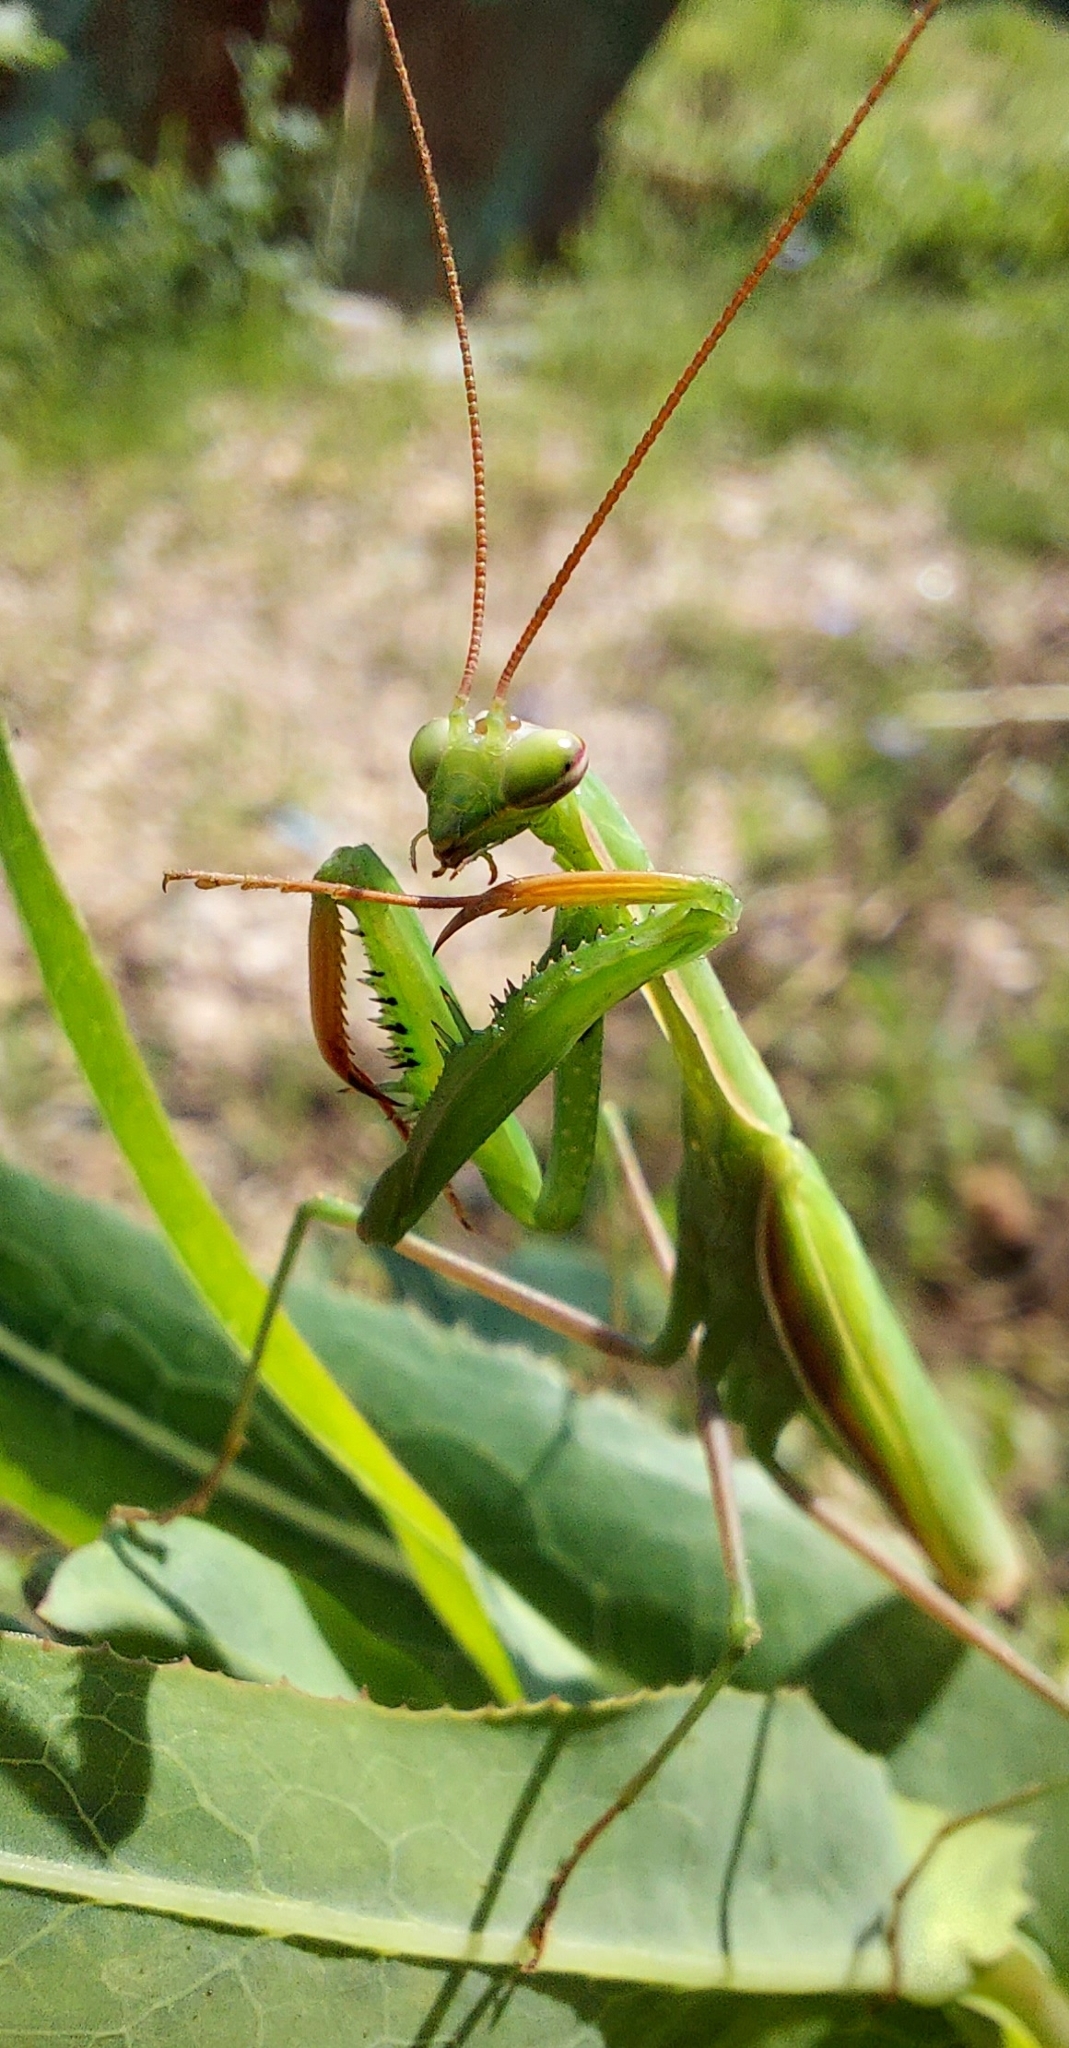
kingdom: Animalia
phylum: Arthropoda
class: Insecta
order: Mantodea
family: Mantidae
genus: Mantis
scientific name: Mantis religiosa
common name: Praying mantis
